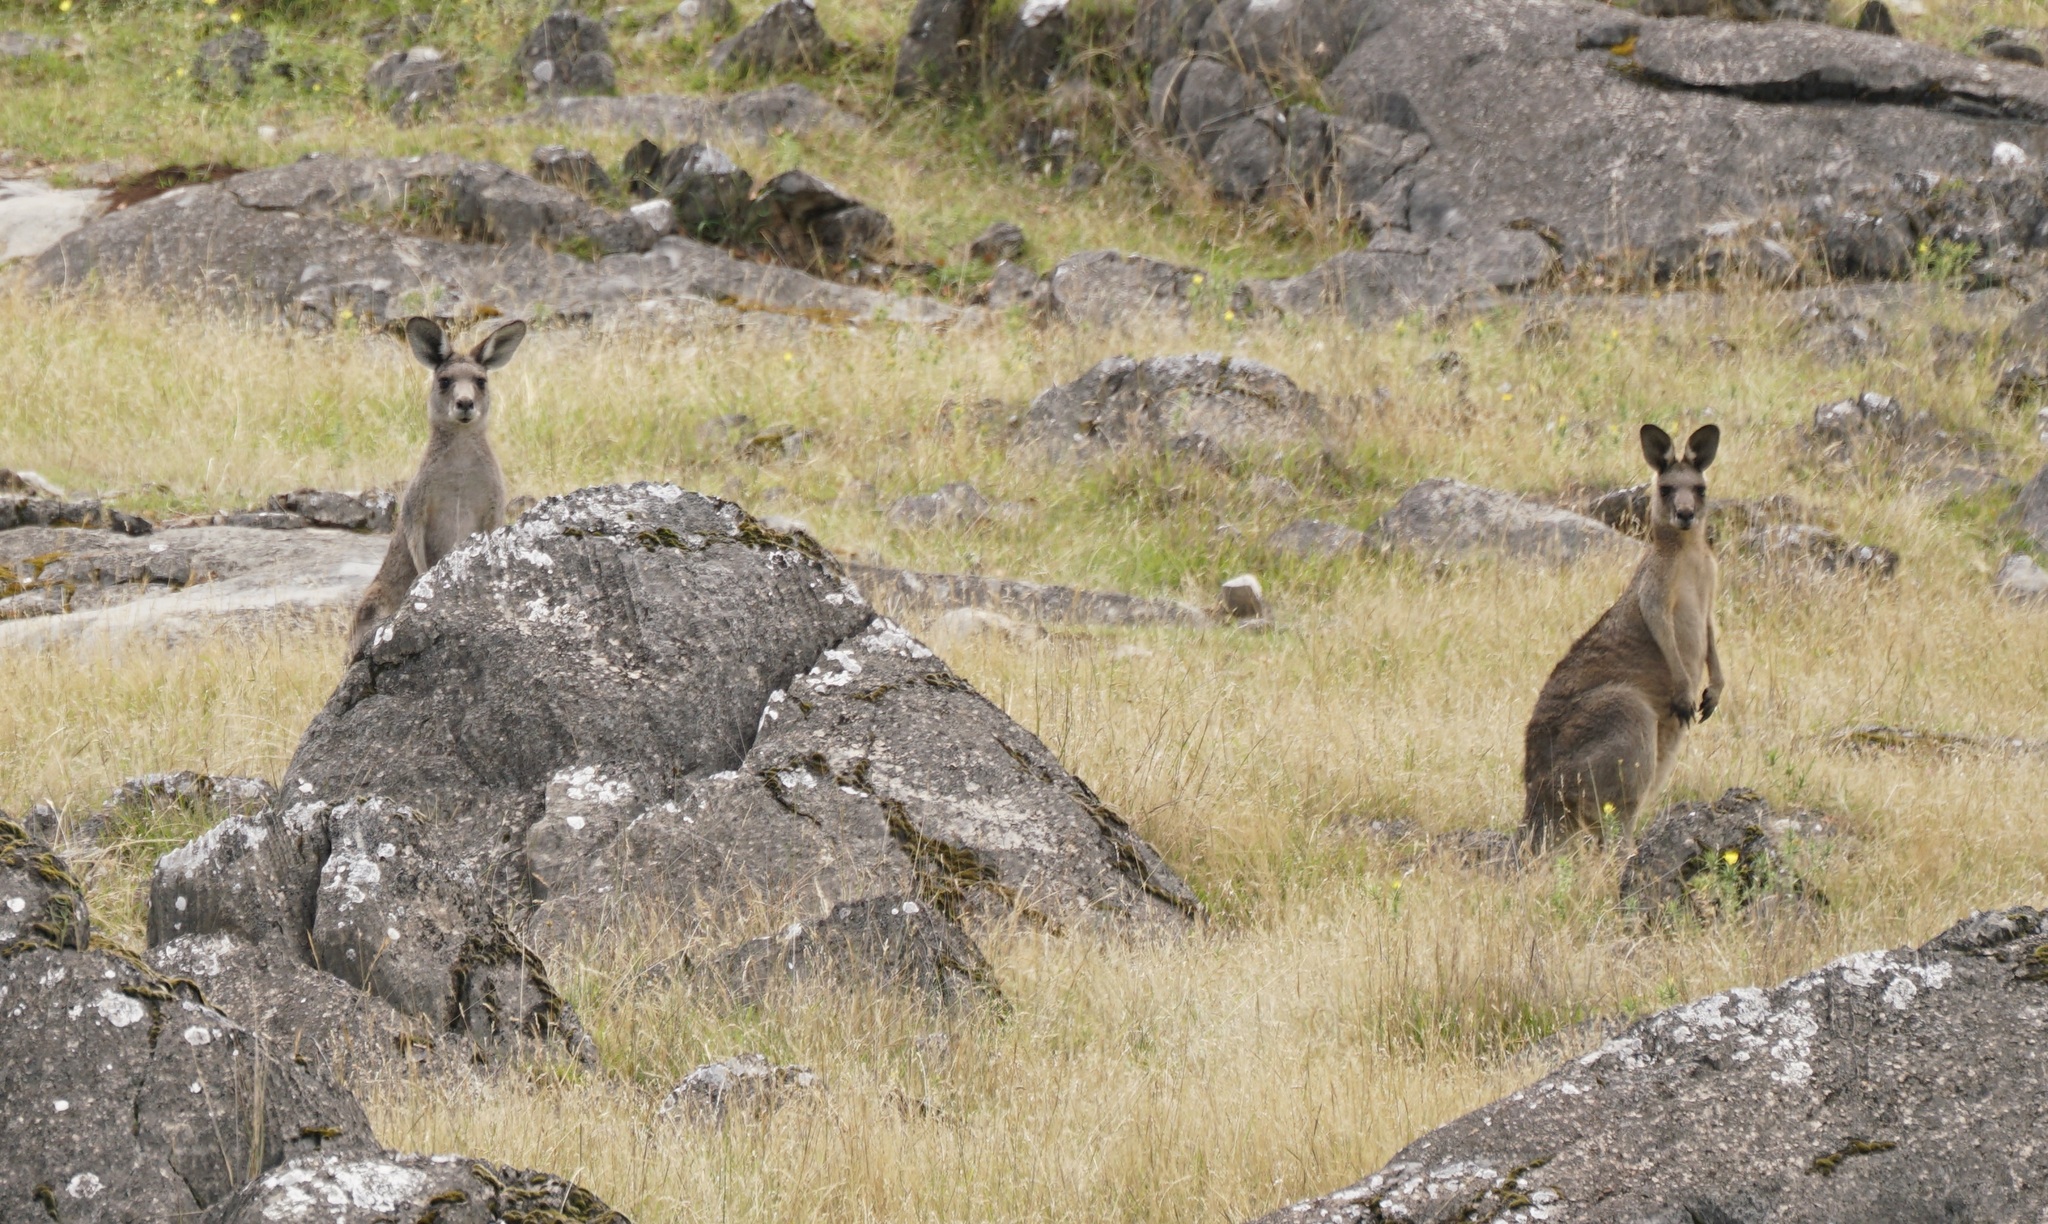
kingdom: Animalia
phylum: Chordata
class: Mammalia
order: Diprotodontia
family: Macropodidae
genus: Macropus
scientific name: Macropus giganteus
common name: Eastern grey kangaroo
